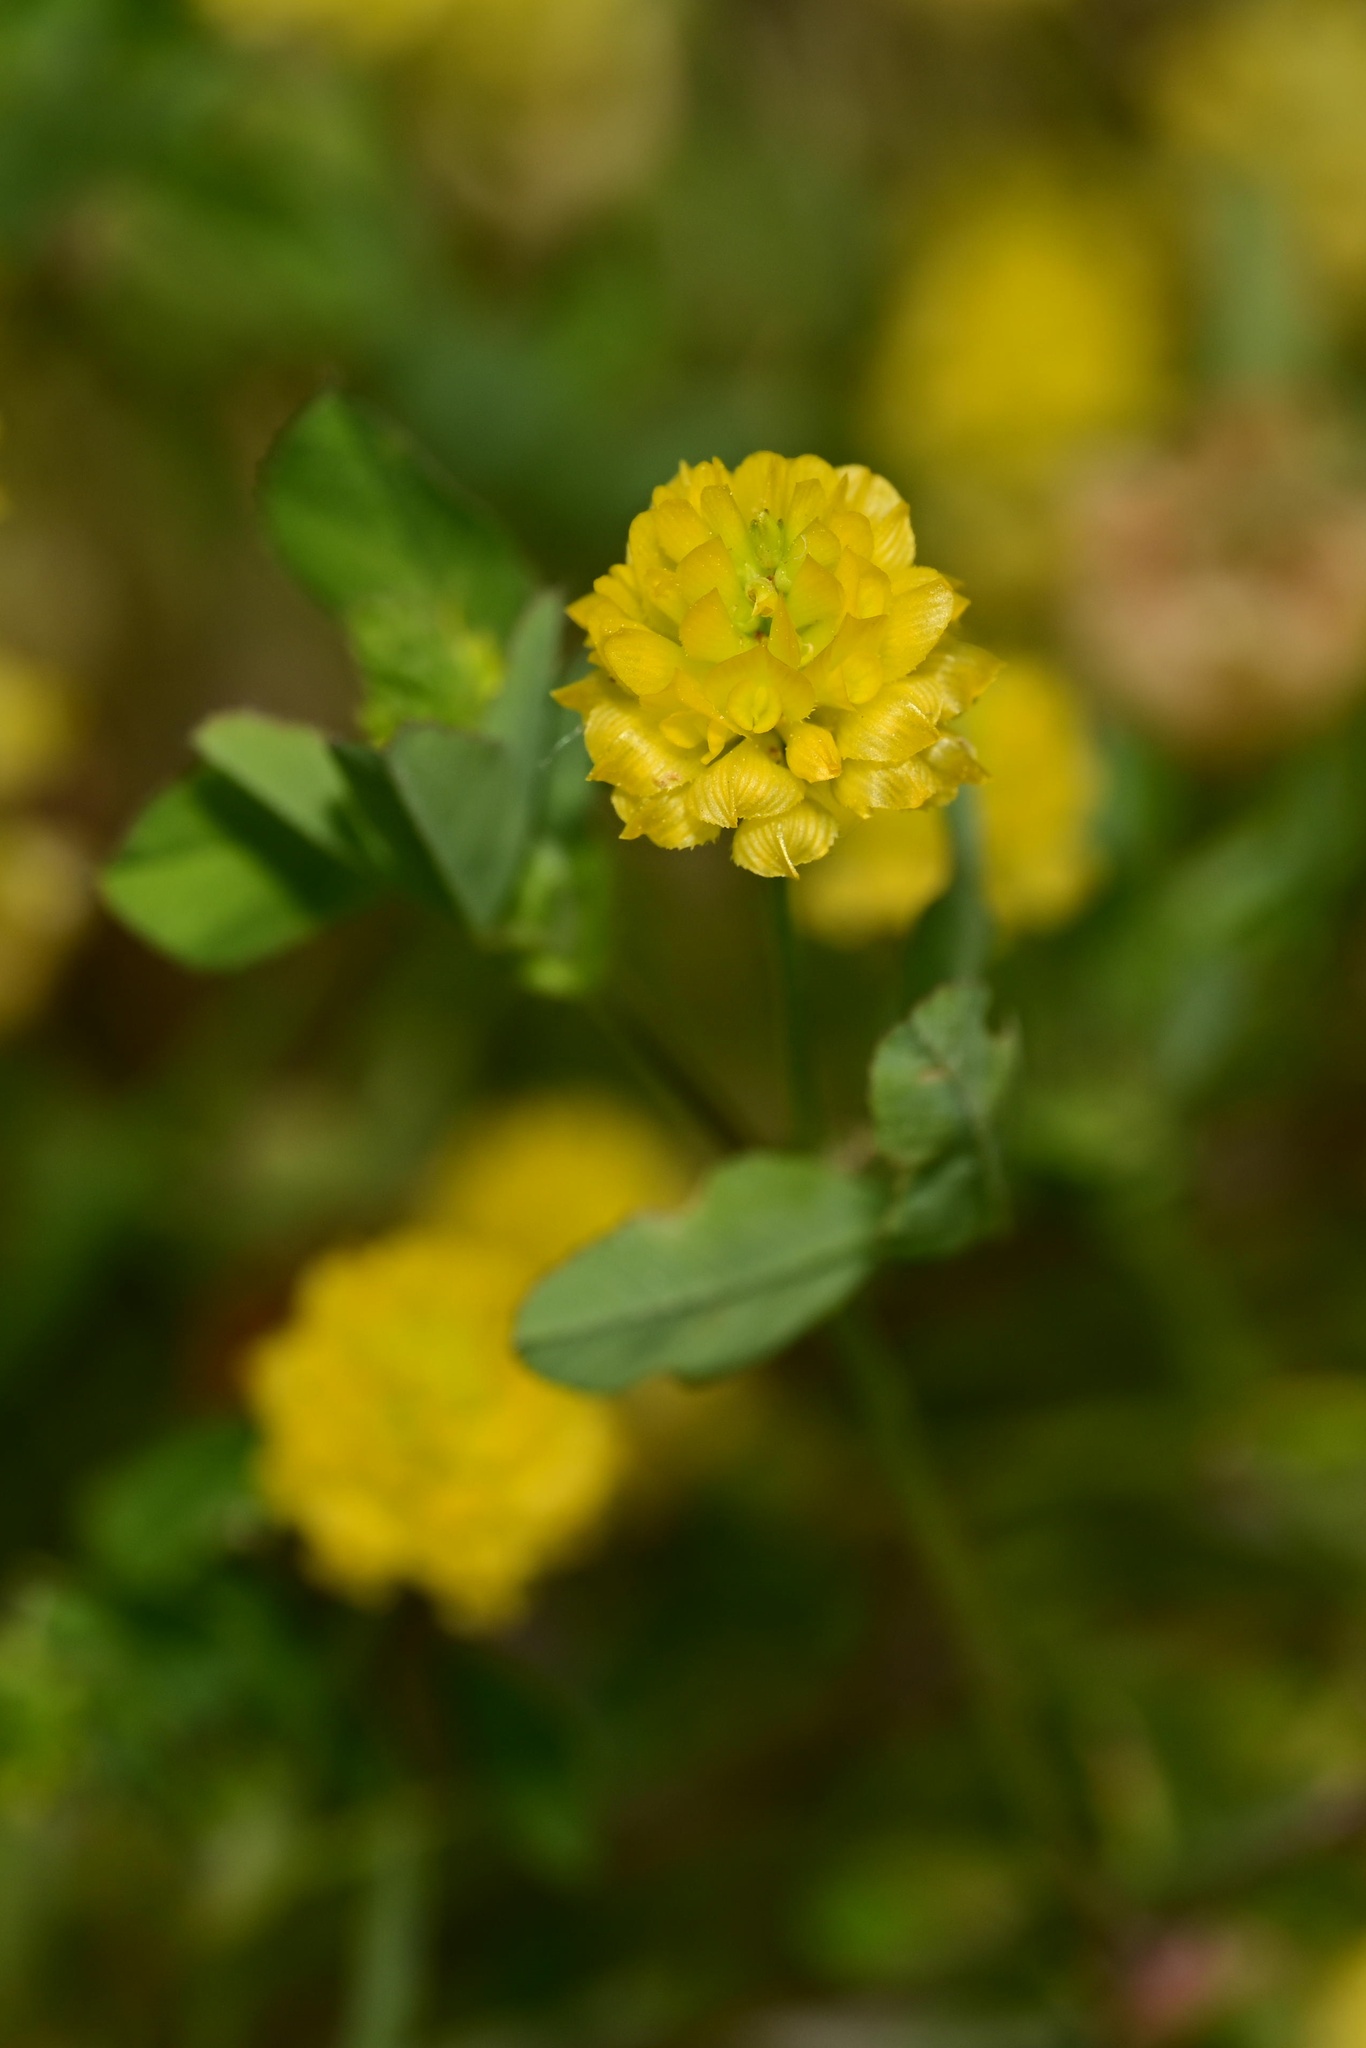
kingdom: Plantae
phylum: Tracheophyta
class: Magnoliopsida
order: Fabales
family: Fabaceae
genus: Trifolium
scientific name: Trifolium campestre
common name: Field clover
